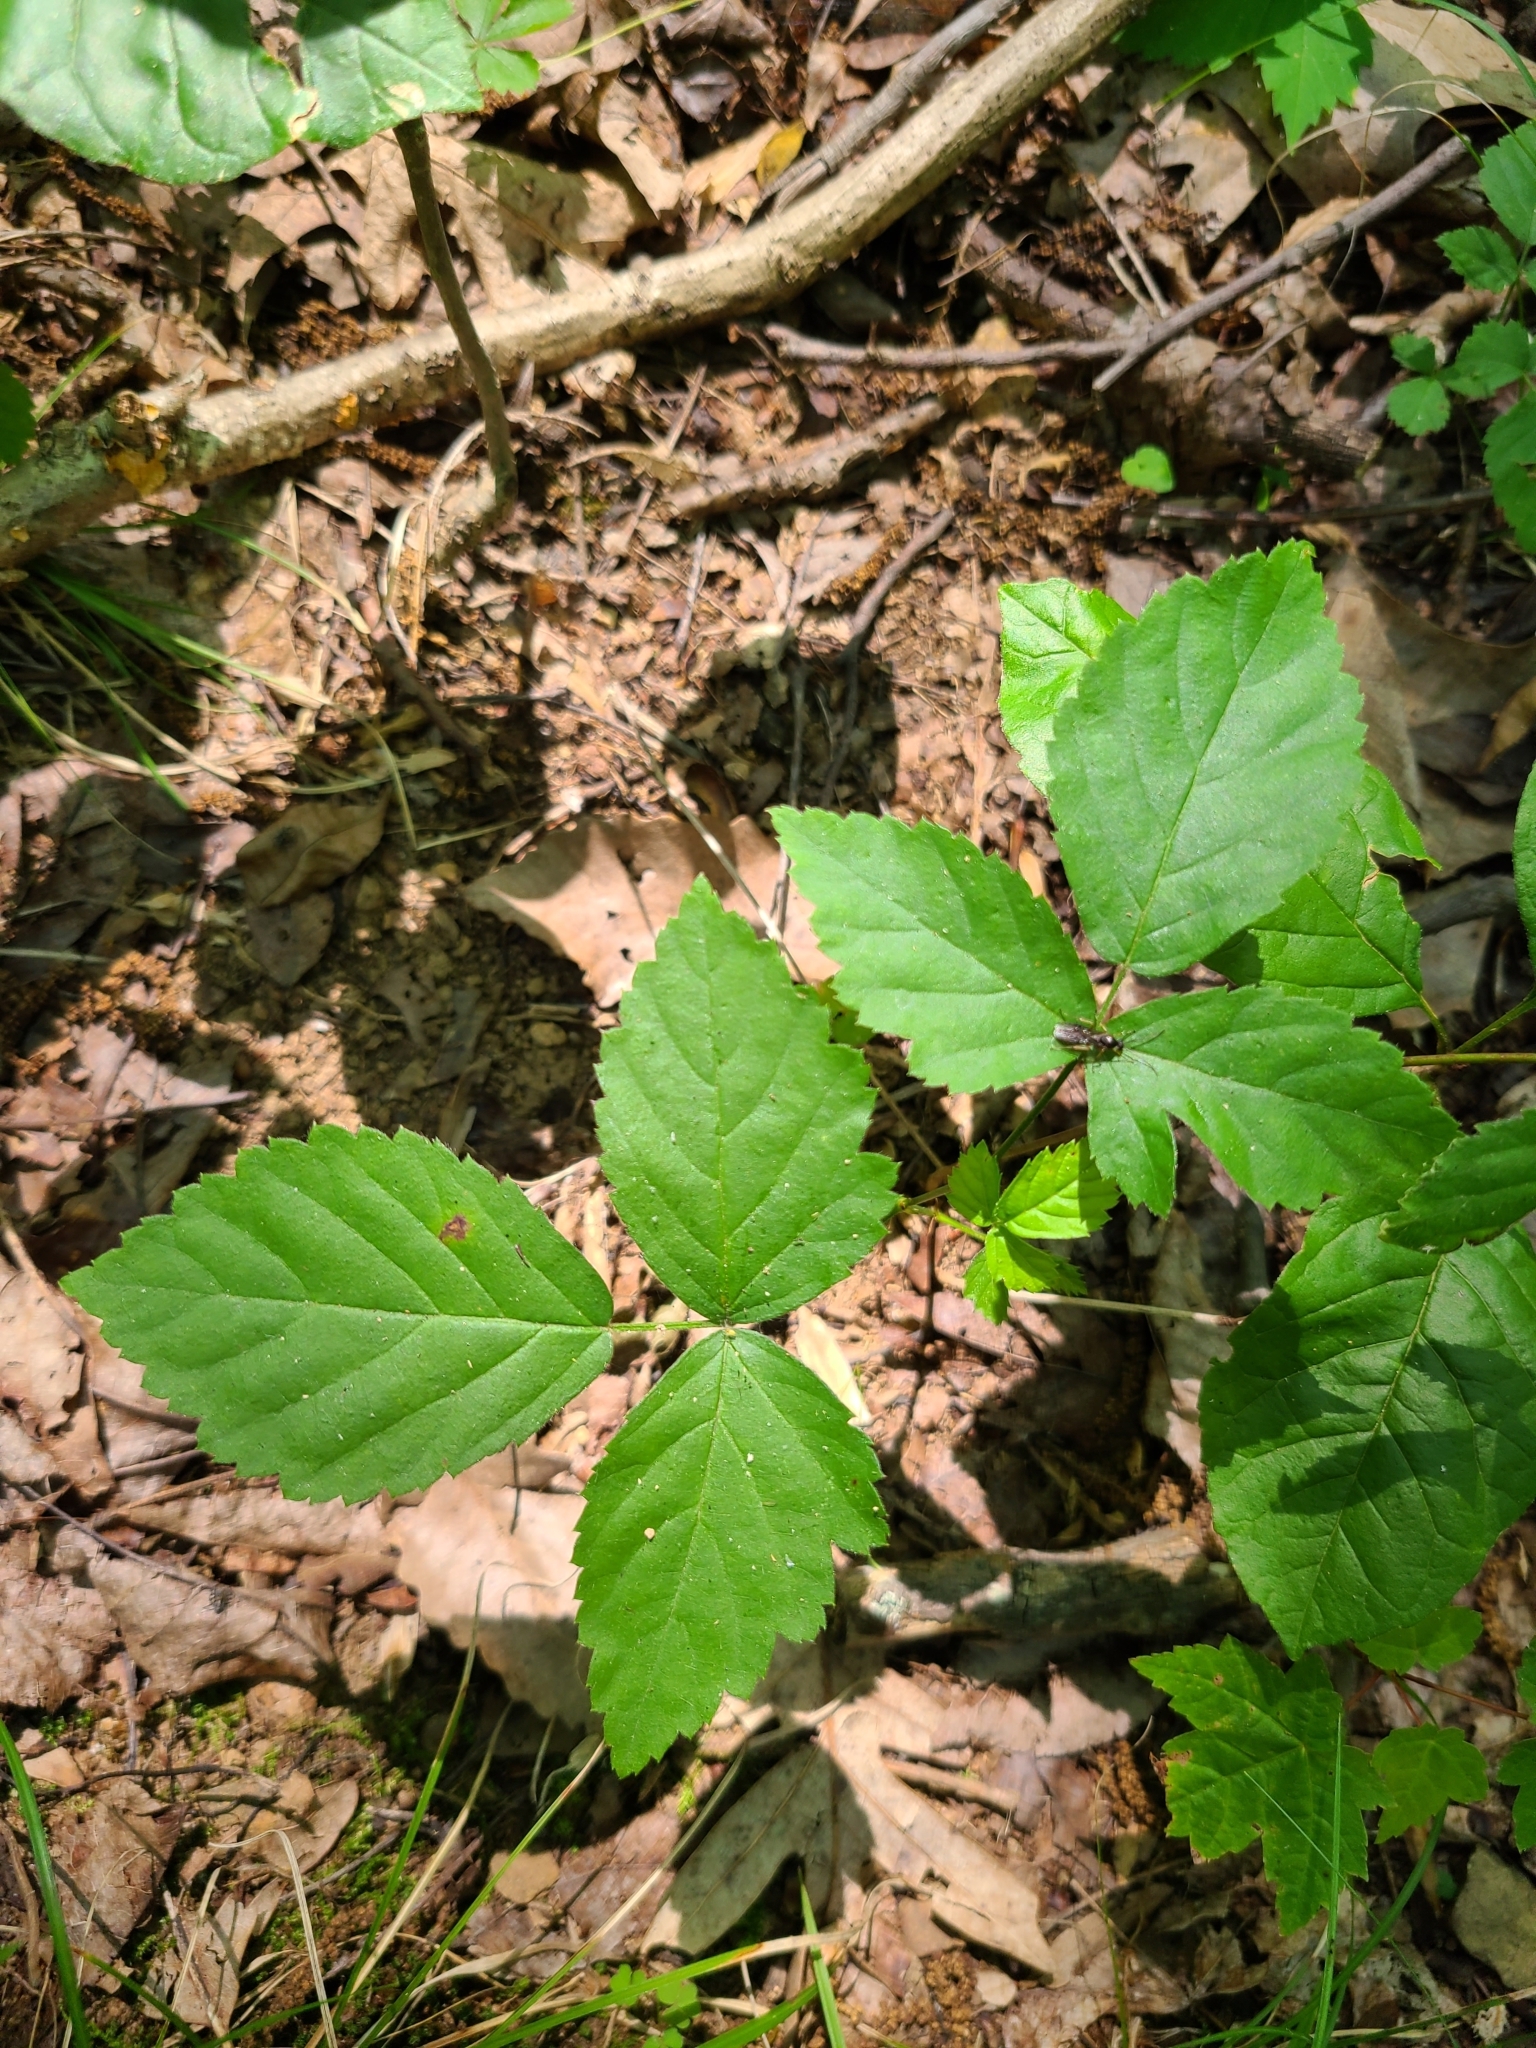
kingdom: Plantae
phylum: Tracheophyta
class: Magnoliopsida
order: Rosales
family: Rosaceae
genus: Rubus
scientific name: Rubus flagellaris
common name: American dewberry
